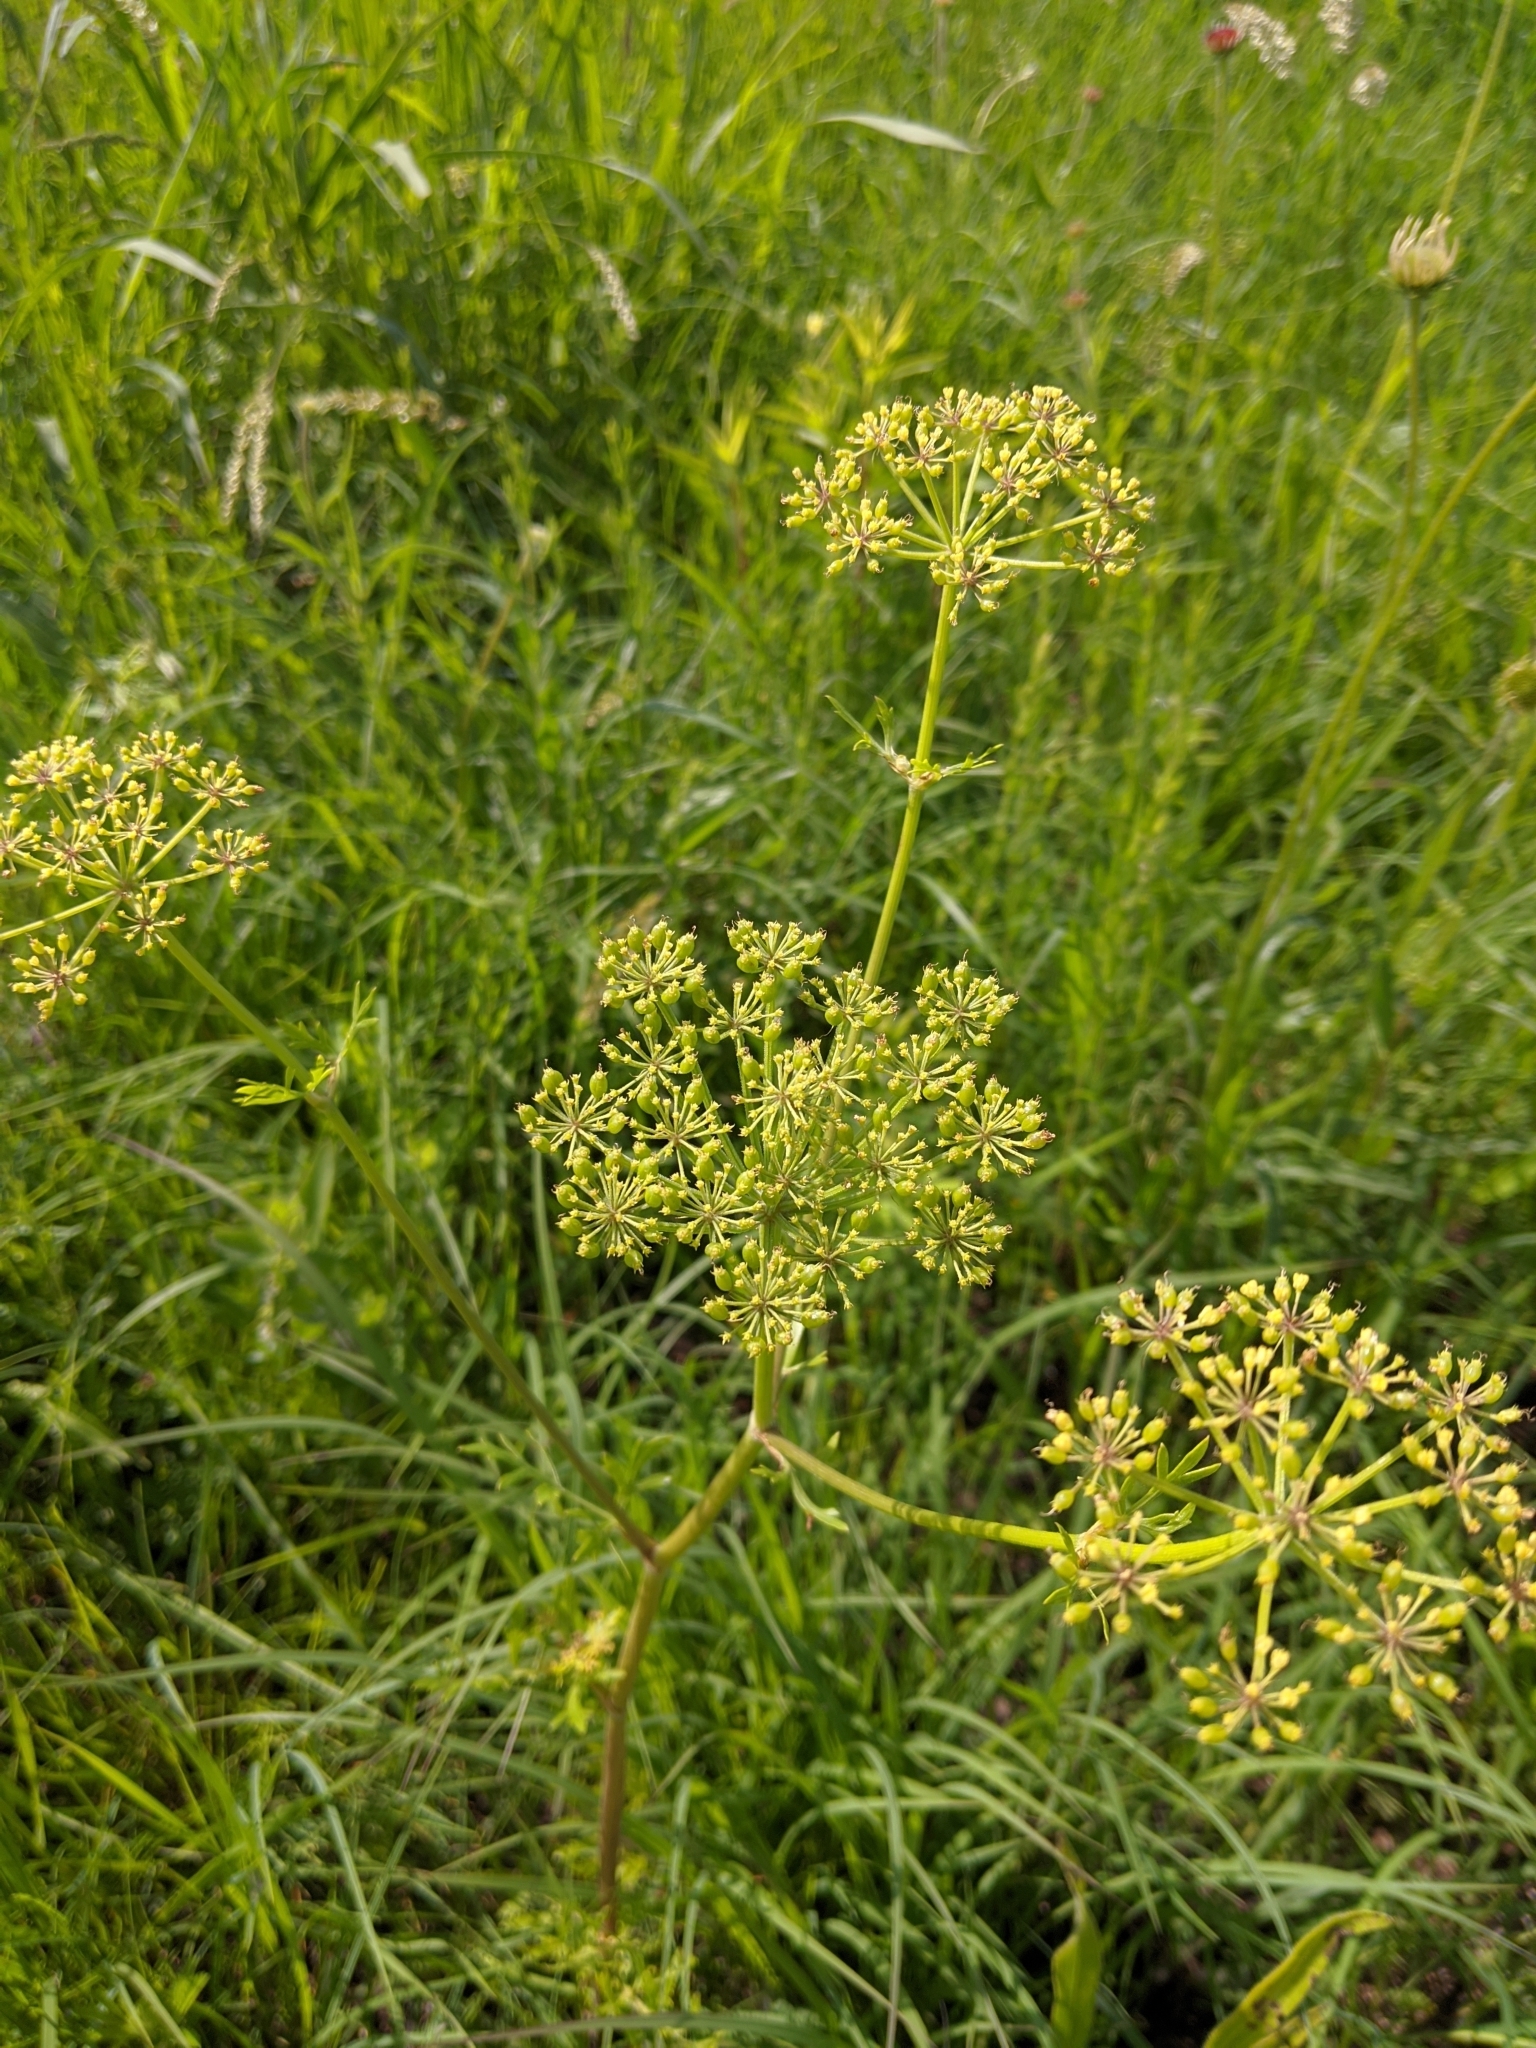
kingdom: Plantae
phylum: Tracheophyta
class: Magnoliopsida
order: Apiales
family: Apiaceae
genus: Polytaenia
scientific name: Polytaenia nuttallii
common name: Prairie-parsley
